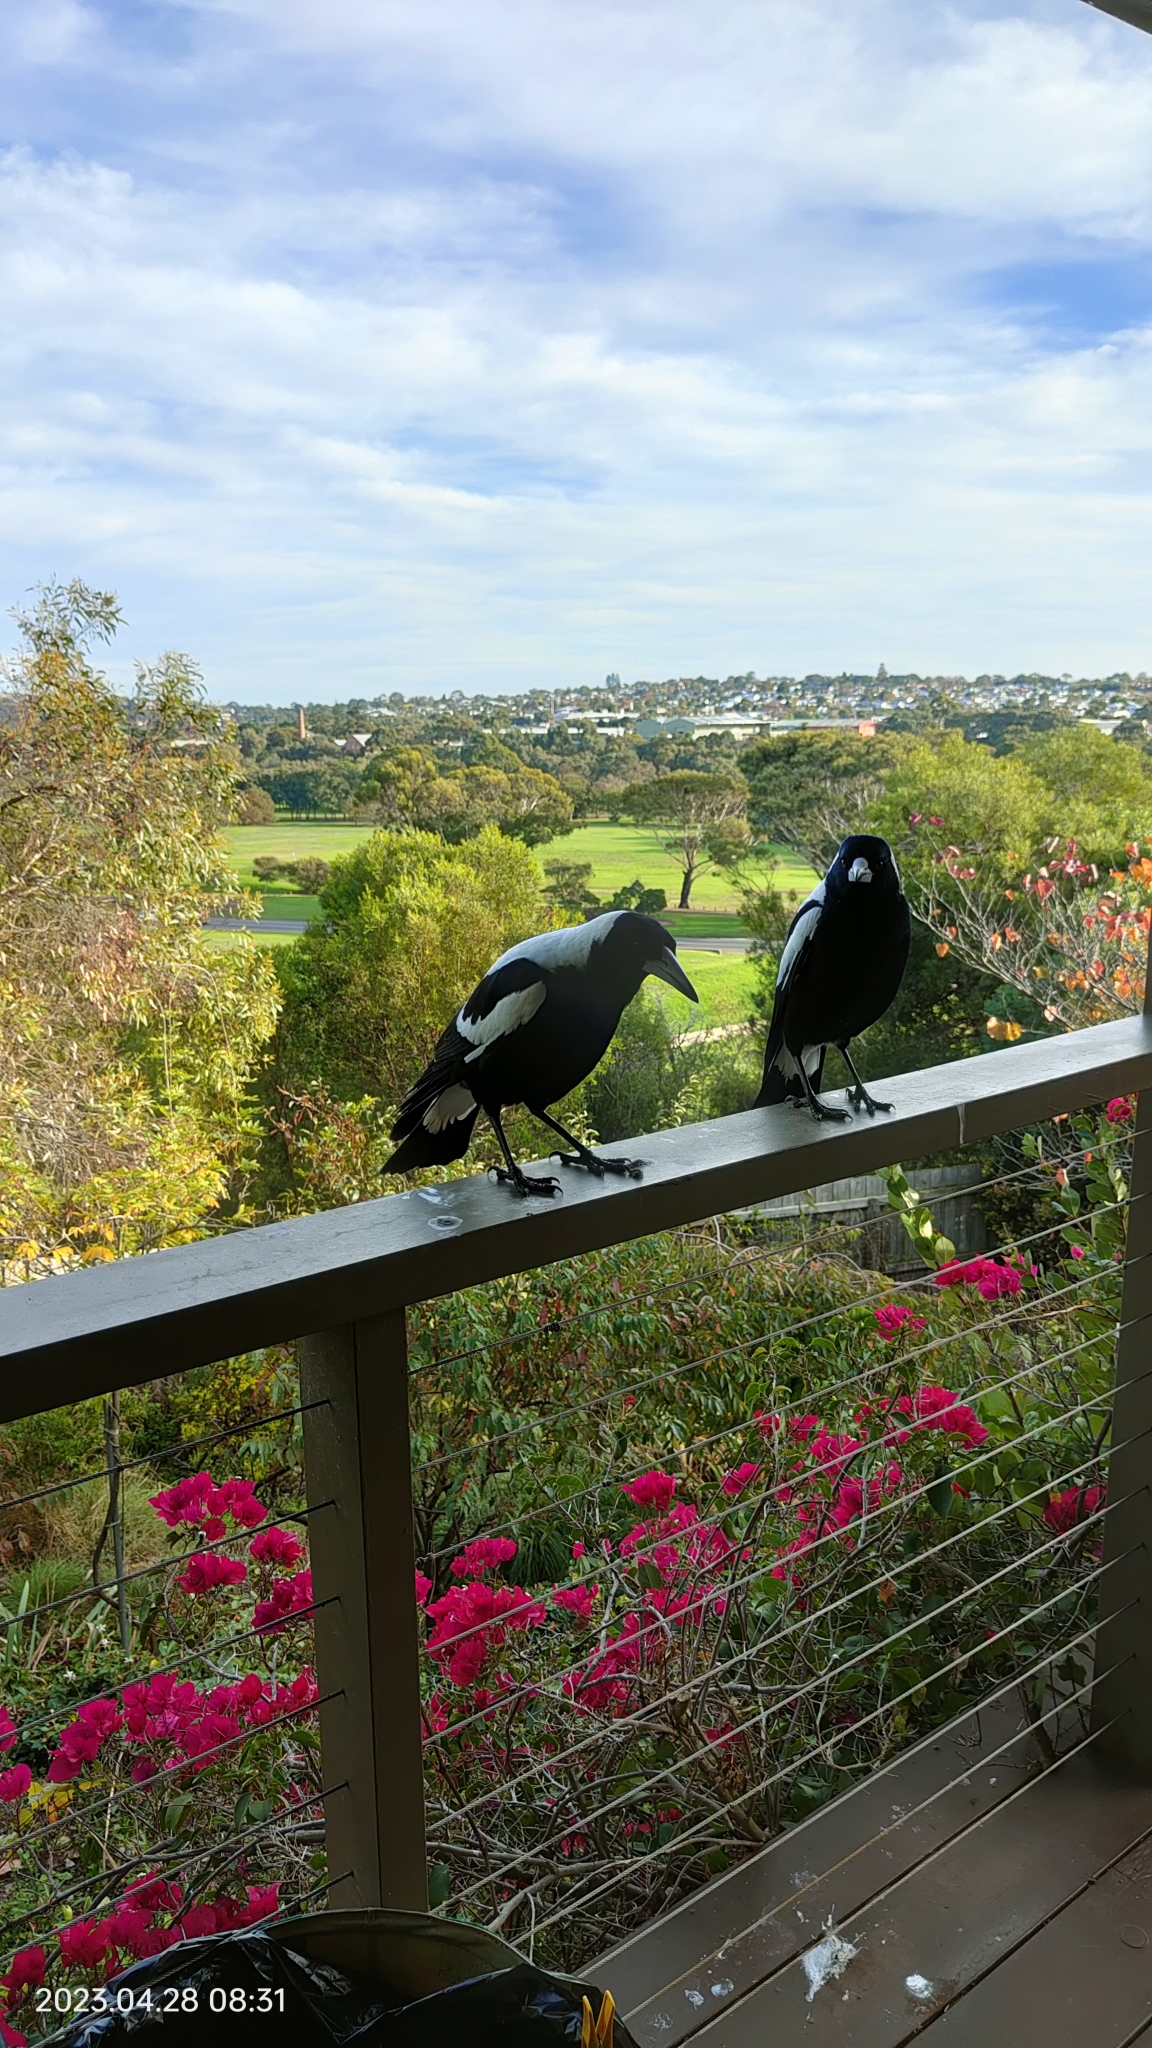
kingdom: Animalia
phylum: Chordata
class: Aves
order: Passeriformes
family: Cracticidae
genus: Gymnorhina
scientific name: Gymnorhina tibicen
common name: Australian magpie
